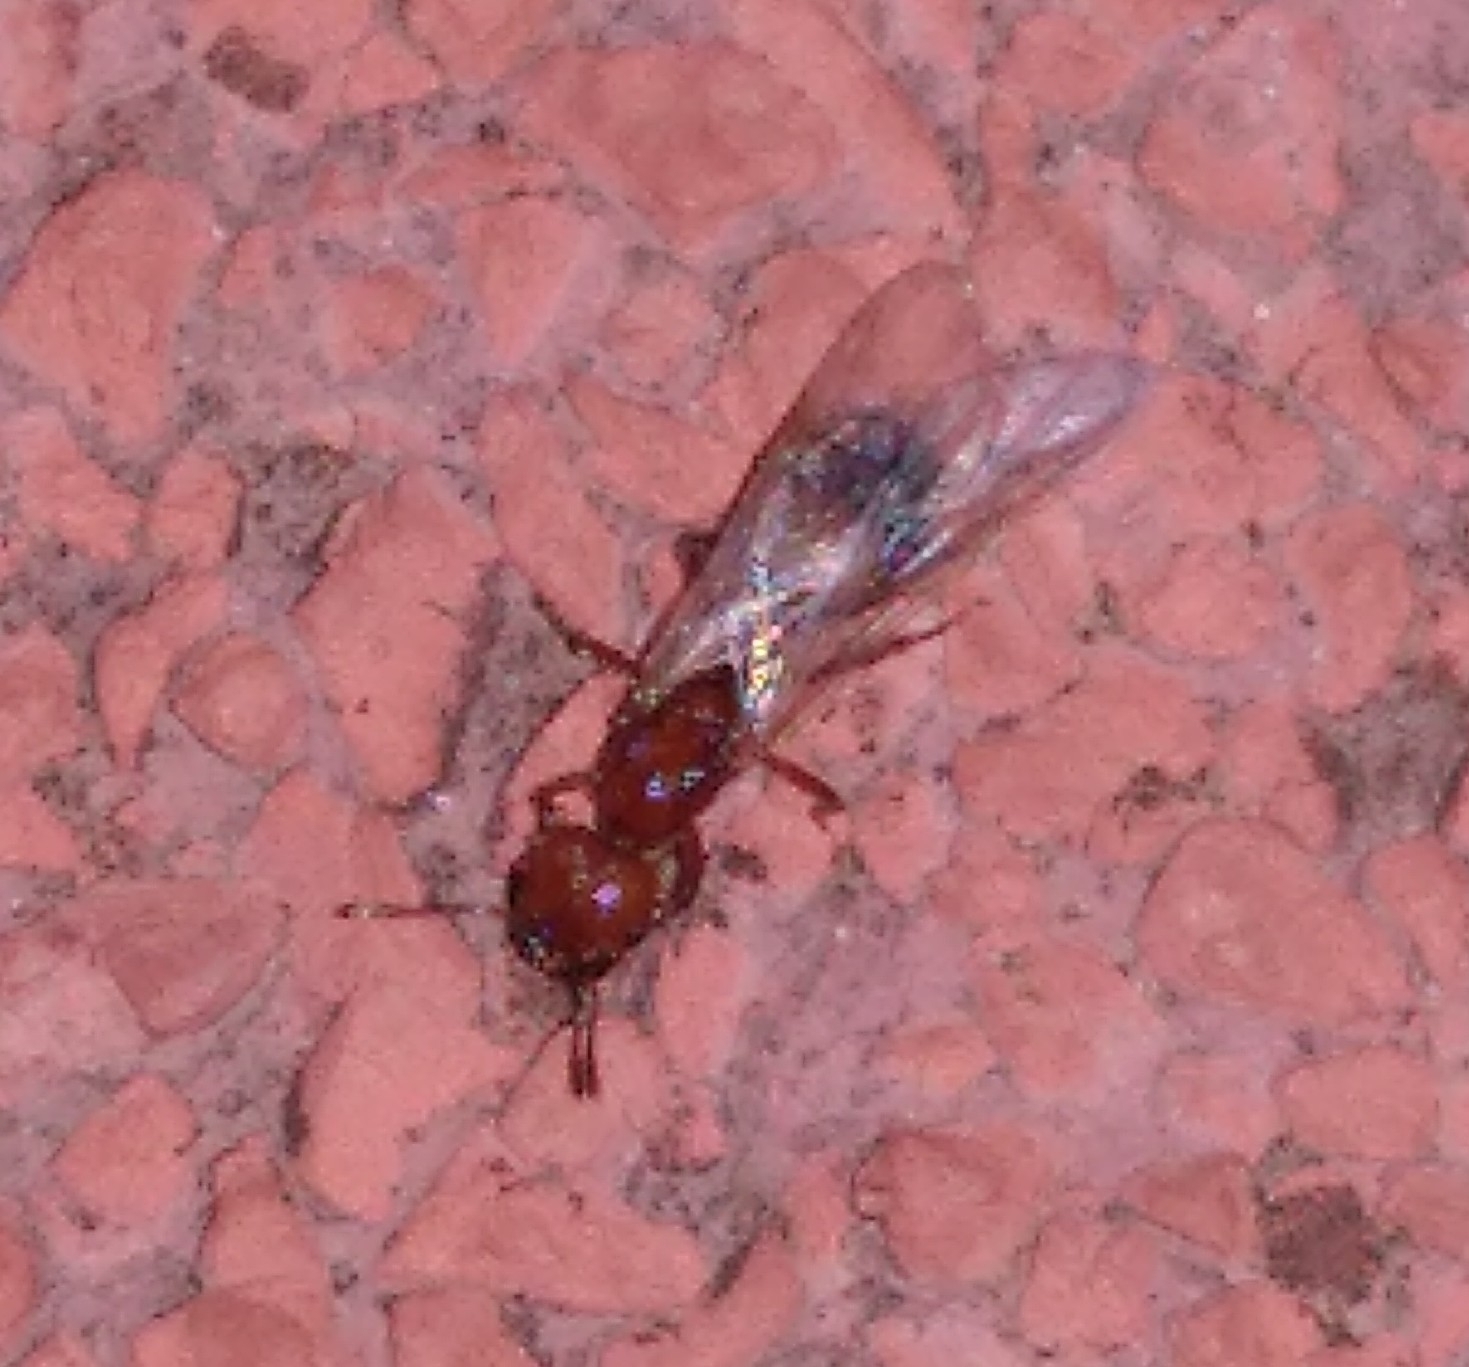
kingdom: Animalia
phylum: Arthropoda
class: Insecta
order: Hymenoptera
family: Formicidae
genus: Solenopsis
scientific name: Solenopsis geminata
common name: Tropical fire ant
